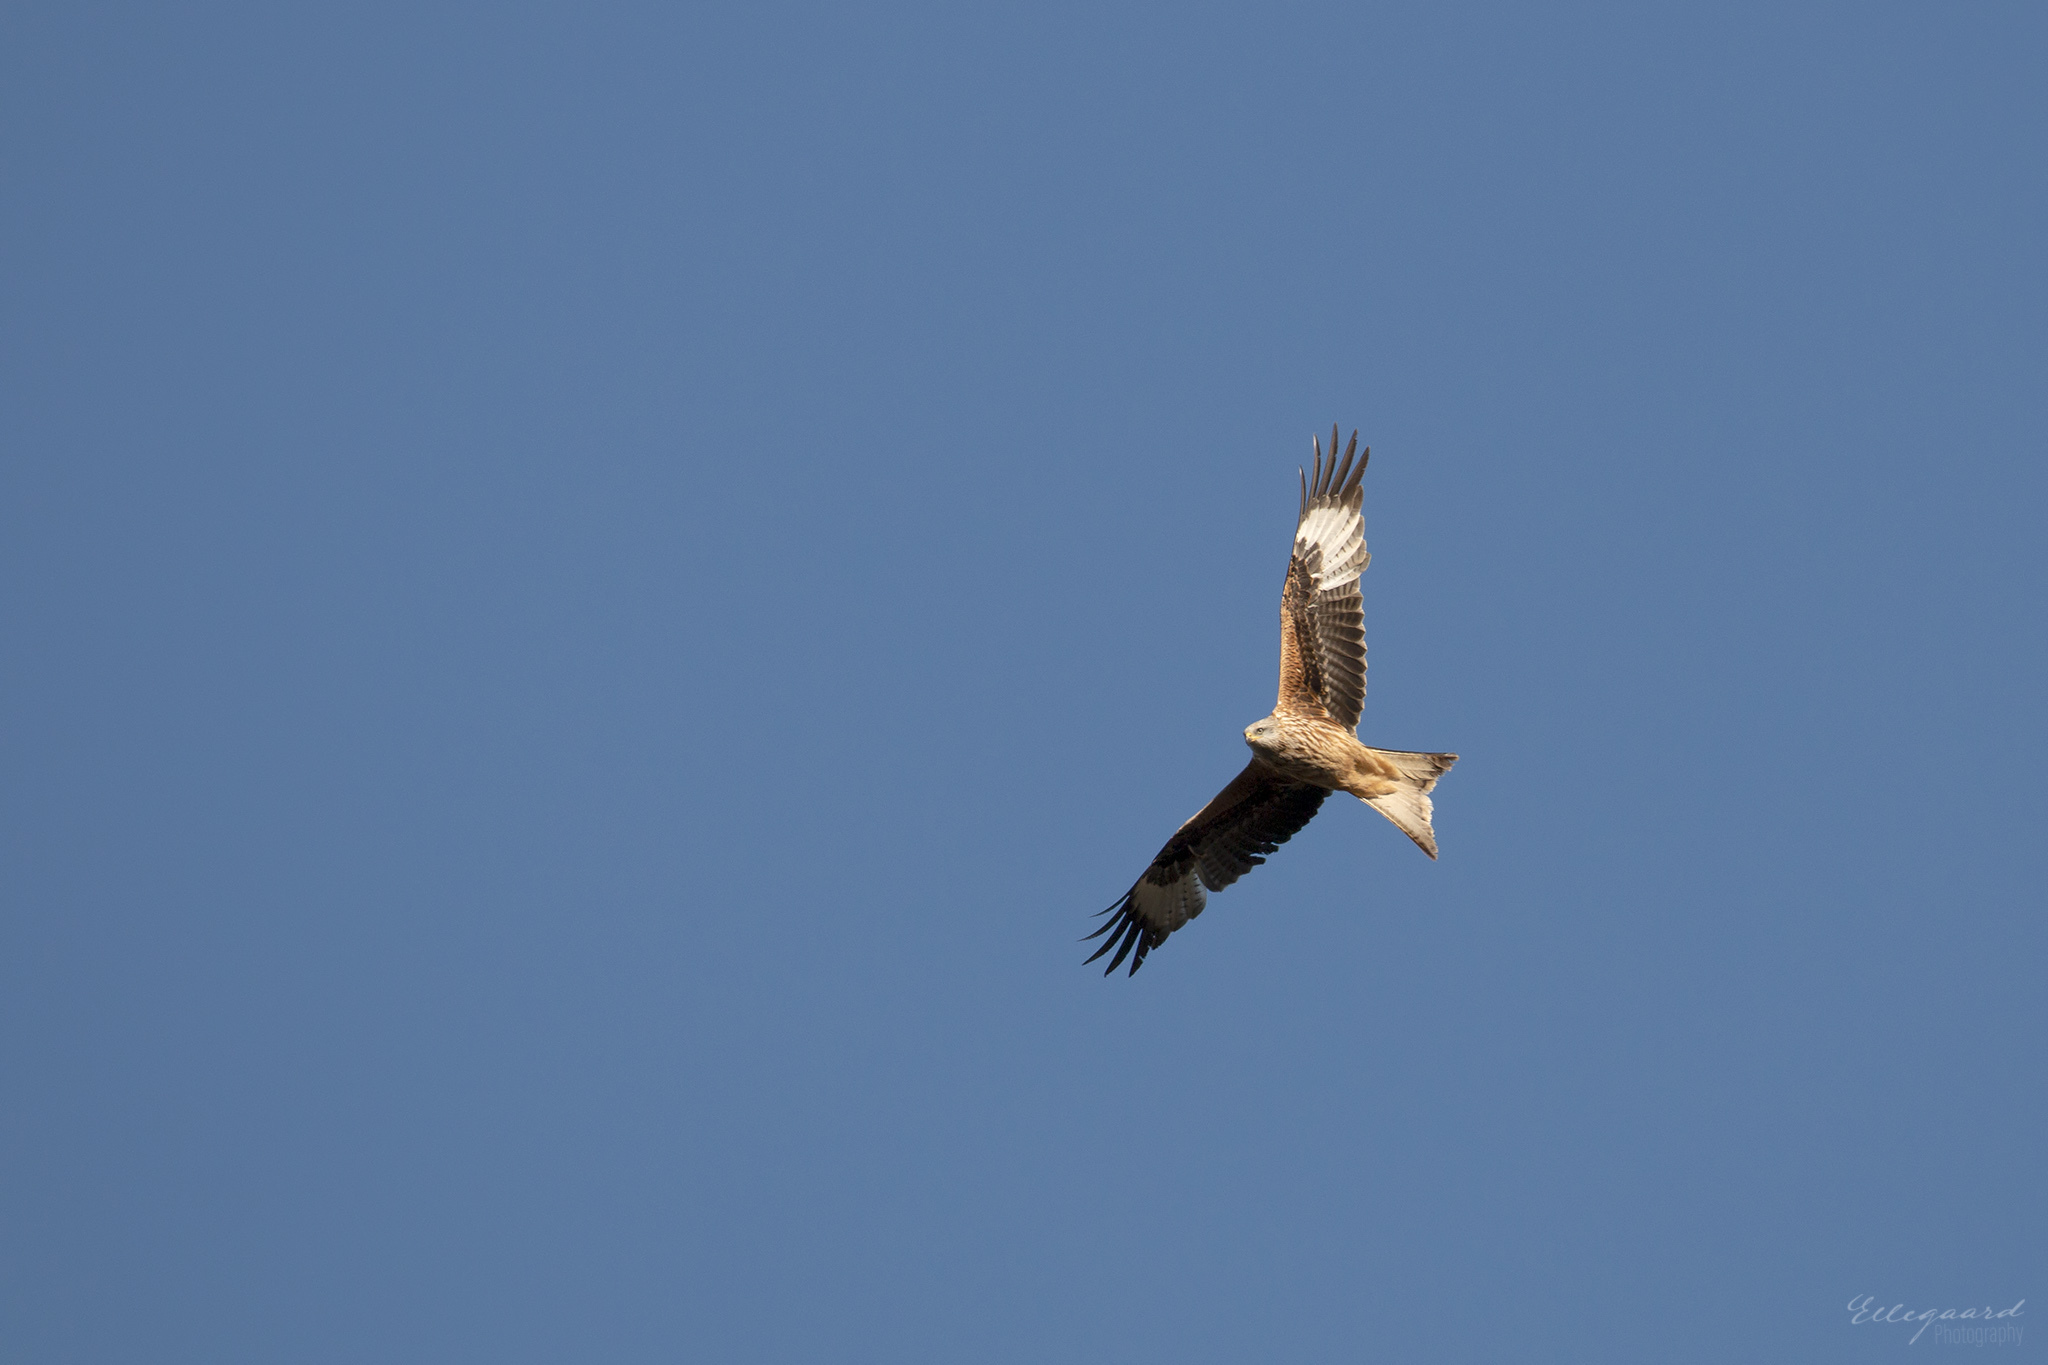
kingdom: Animalia
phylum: Chordata
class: Aves
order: Accipitriformes
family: Accipitridae
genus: Milvus
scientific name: Milvus milvus
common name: Red kite
